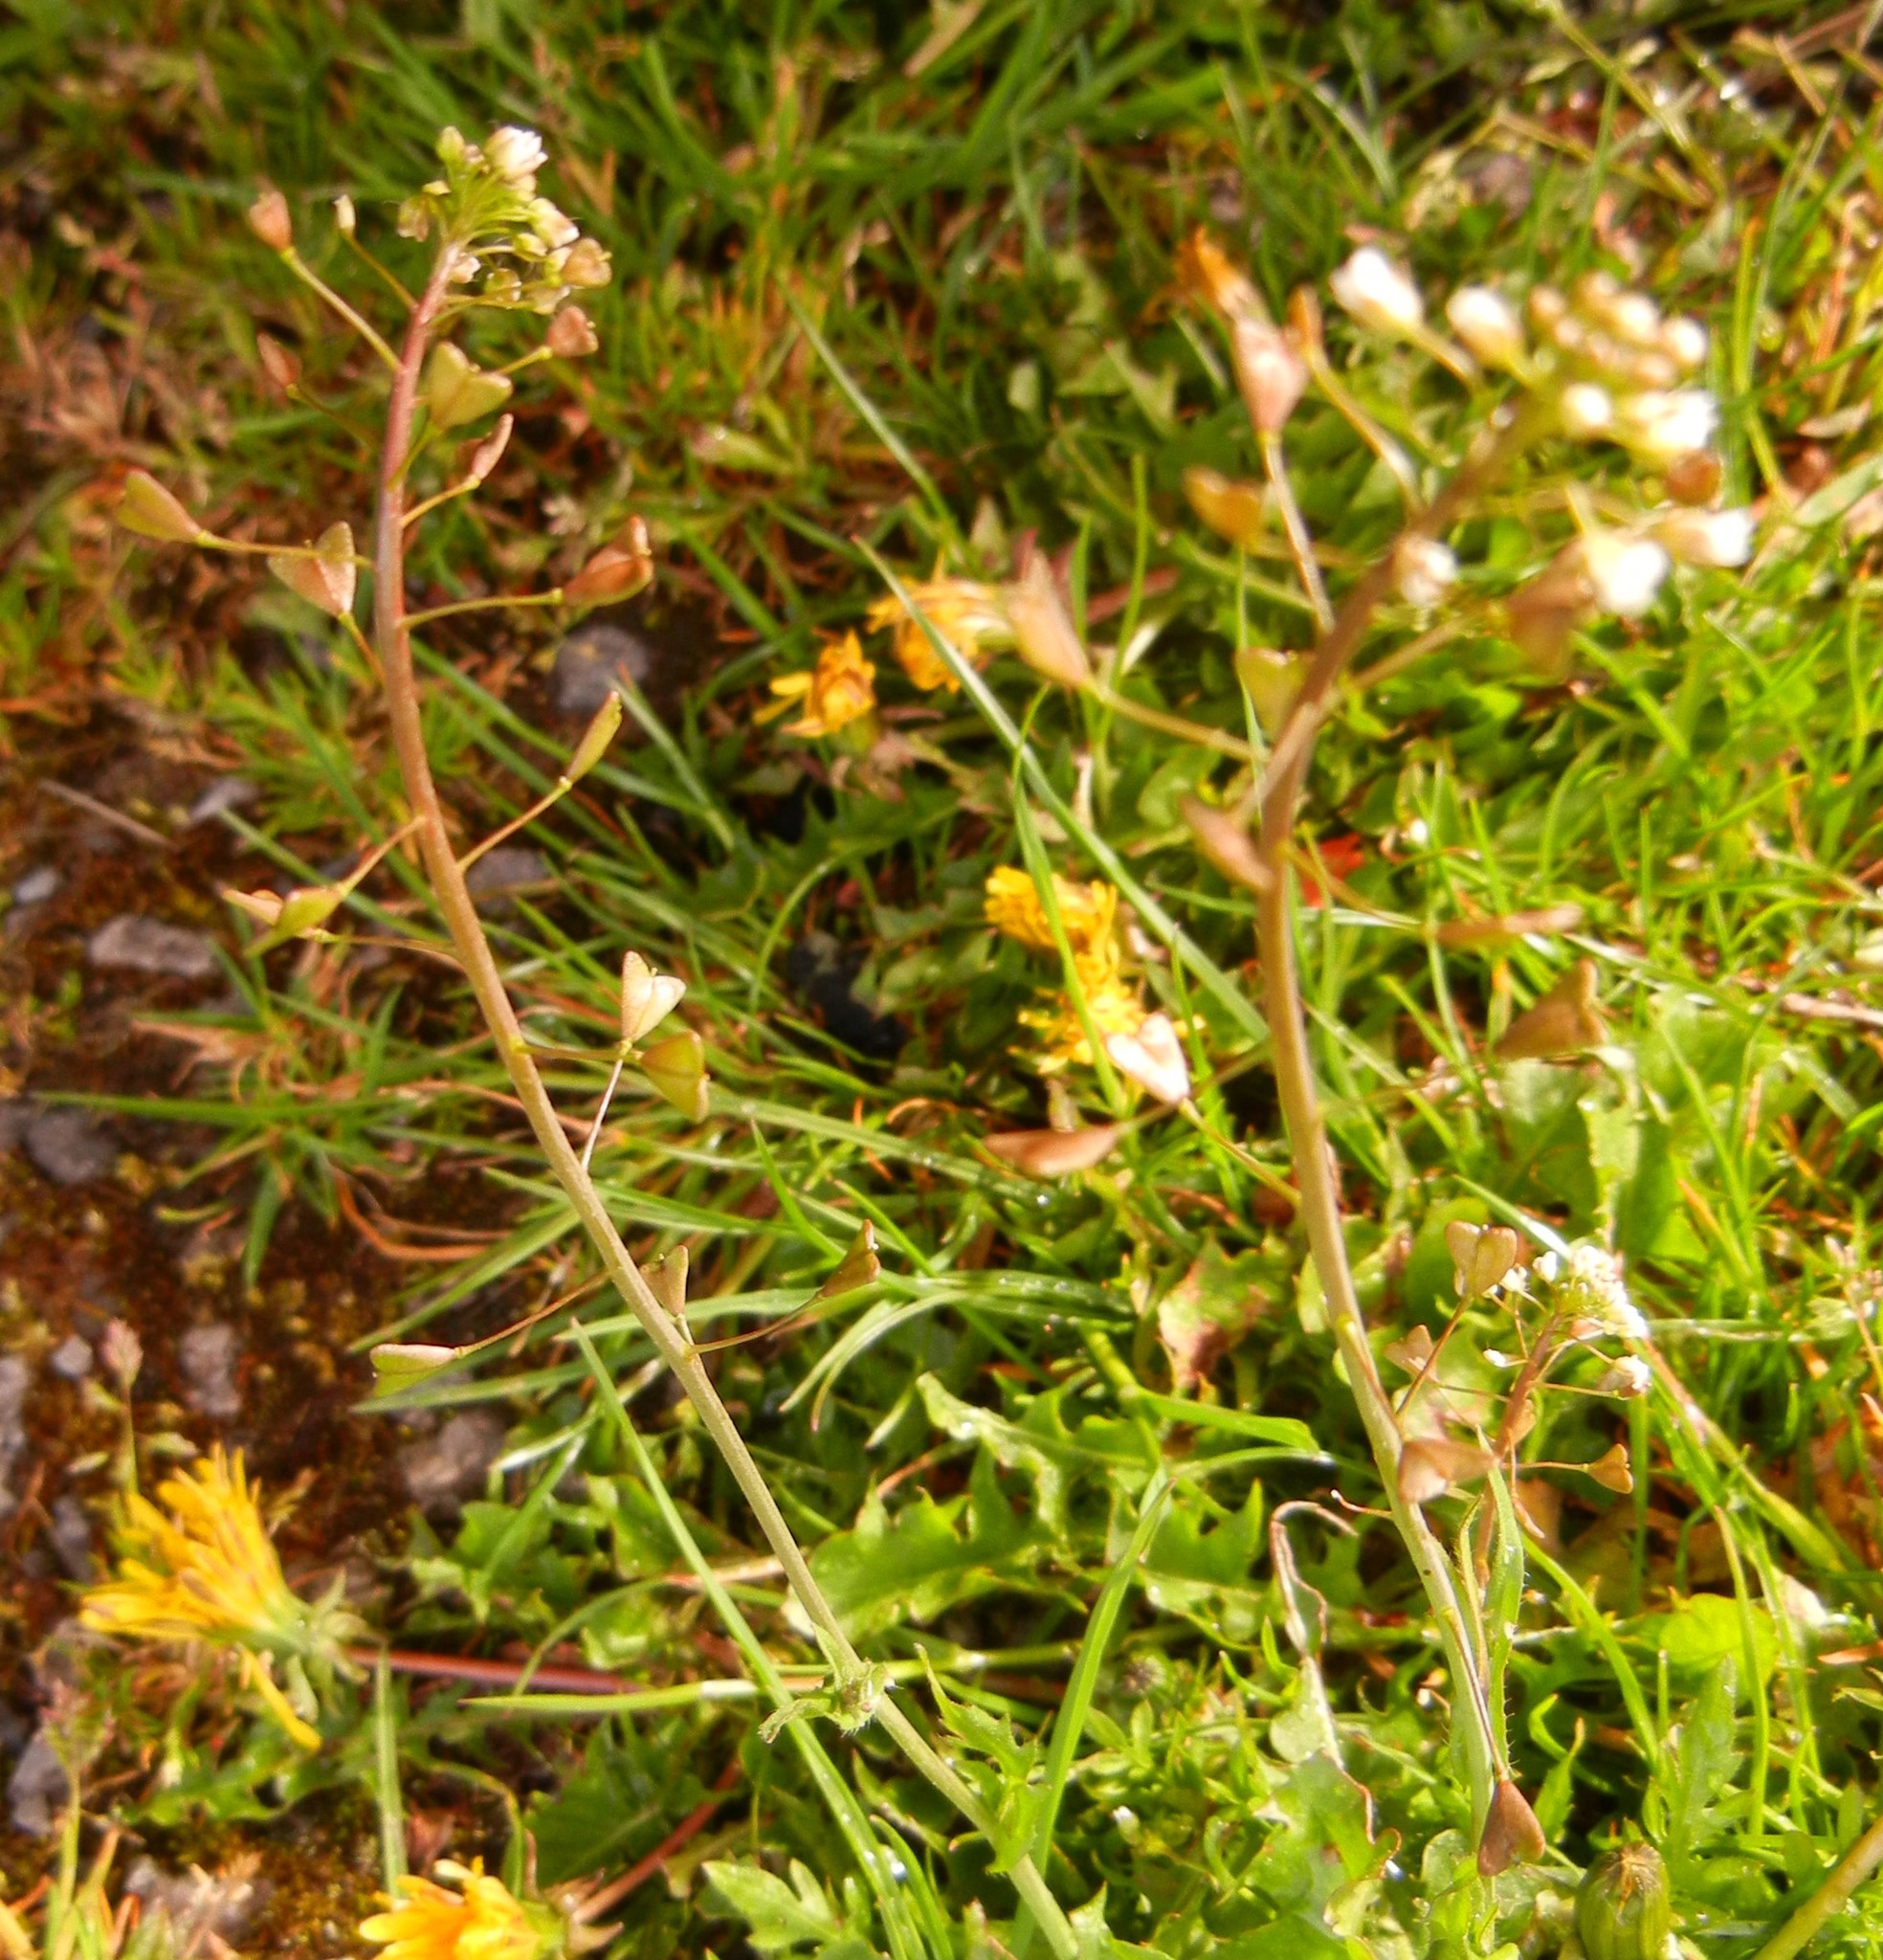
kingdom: Plantae
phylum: Tracheophyta
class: Magnoliopsida
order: Brassicales
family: Brassicaceae
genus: Capsella
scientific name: Capsella bursa-pastoris
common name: Shepherd's purse
